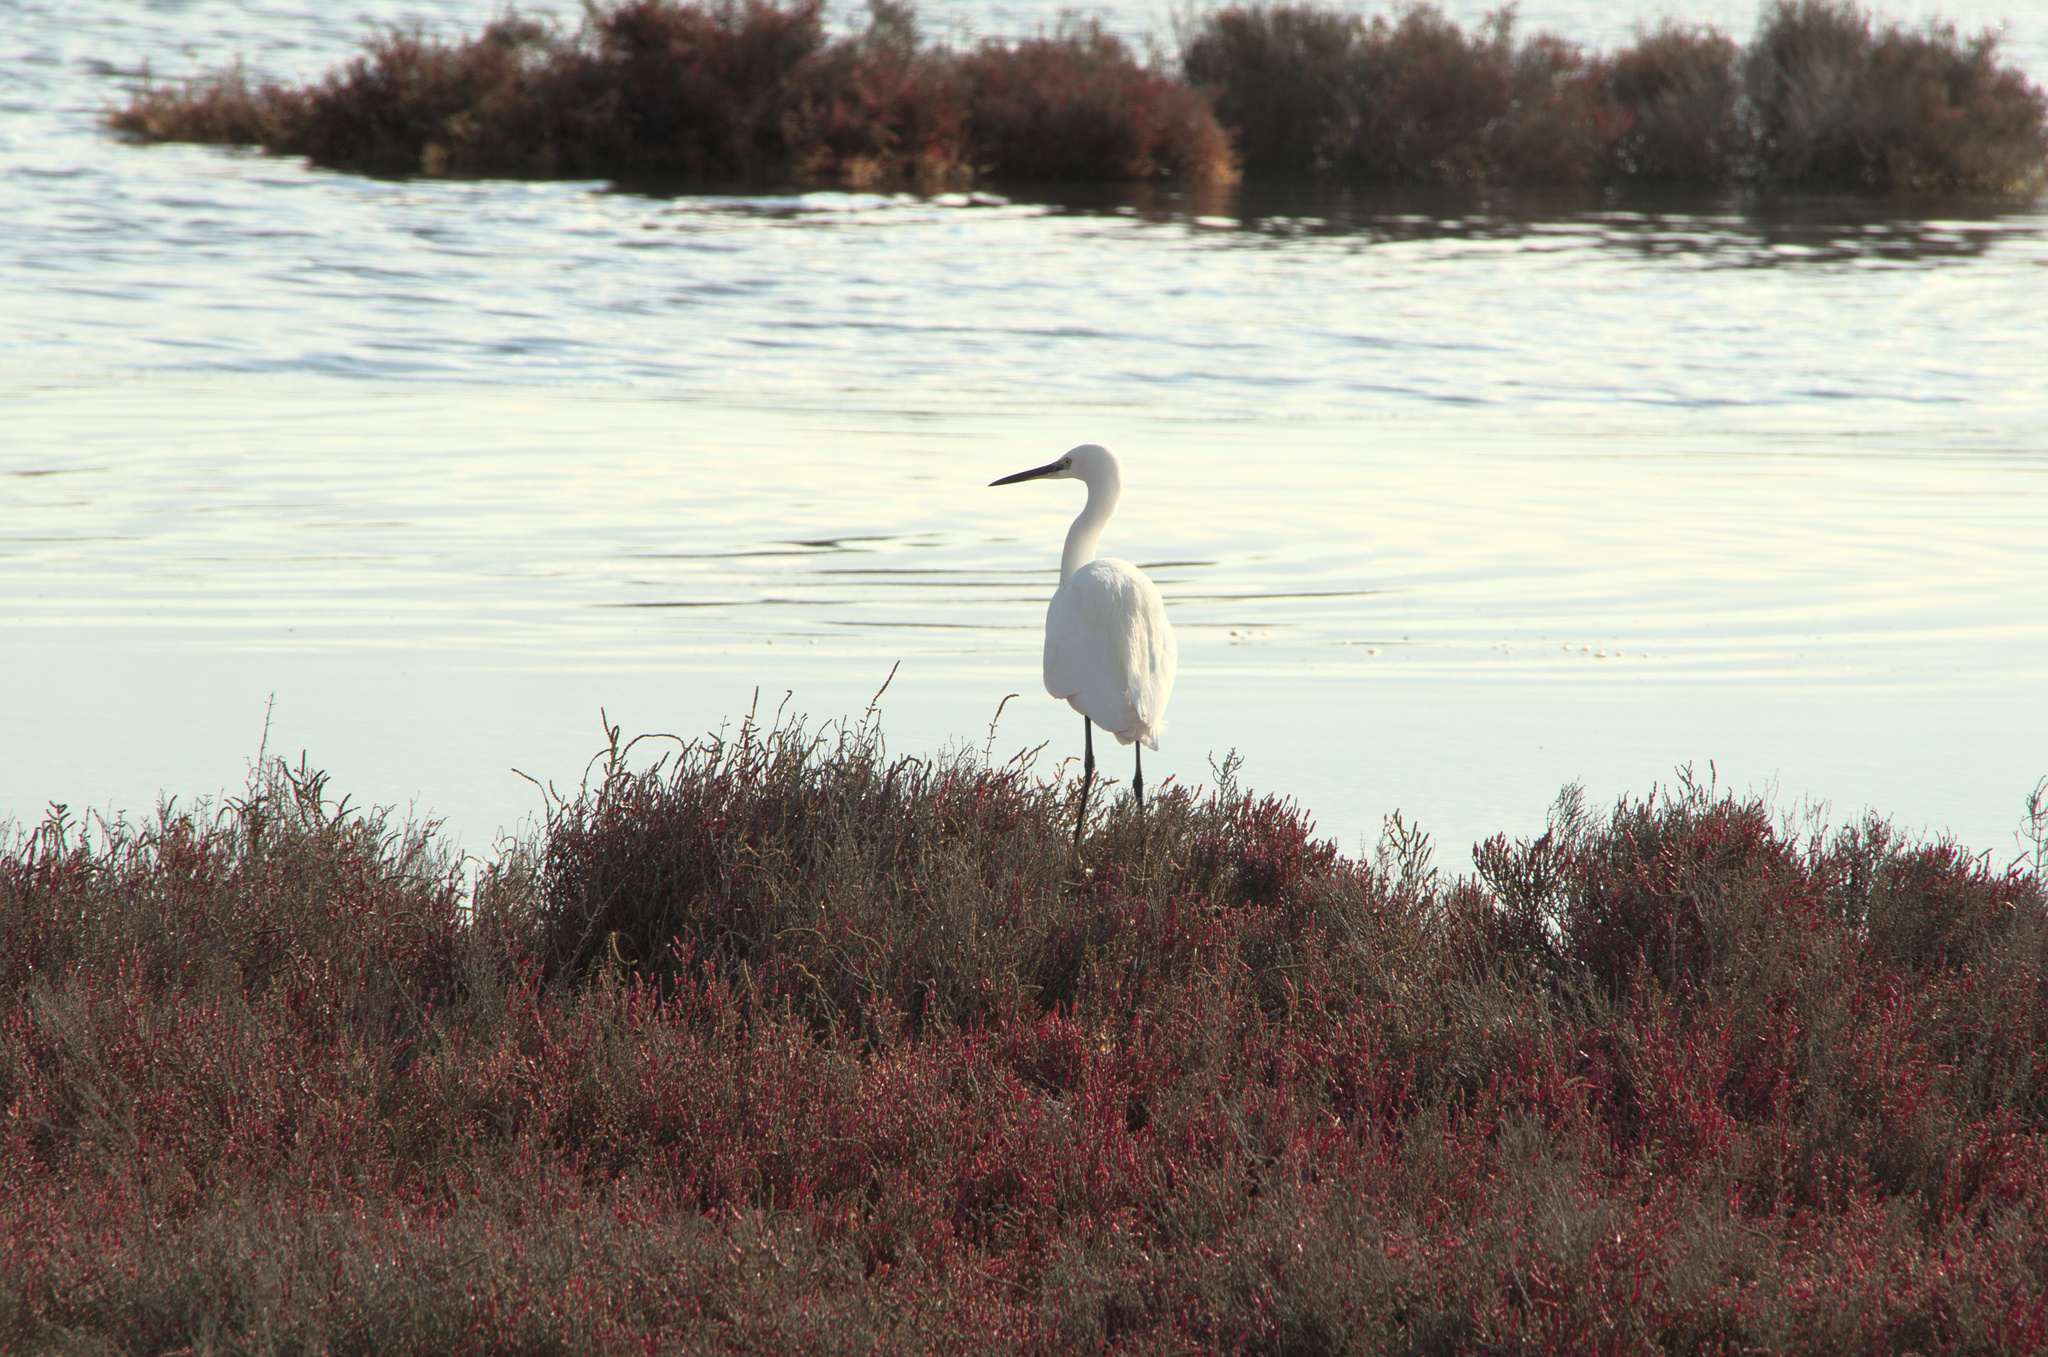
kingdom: Animalia
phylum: Chordata
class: Aves
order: Pelecaniformes
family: Ardeidae
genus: Egretta
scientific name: Egretta garzetta
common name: Little egret
